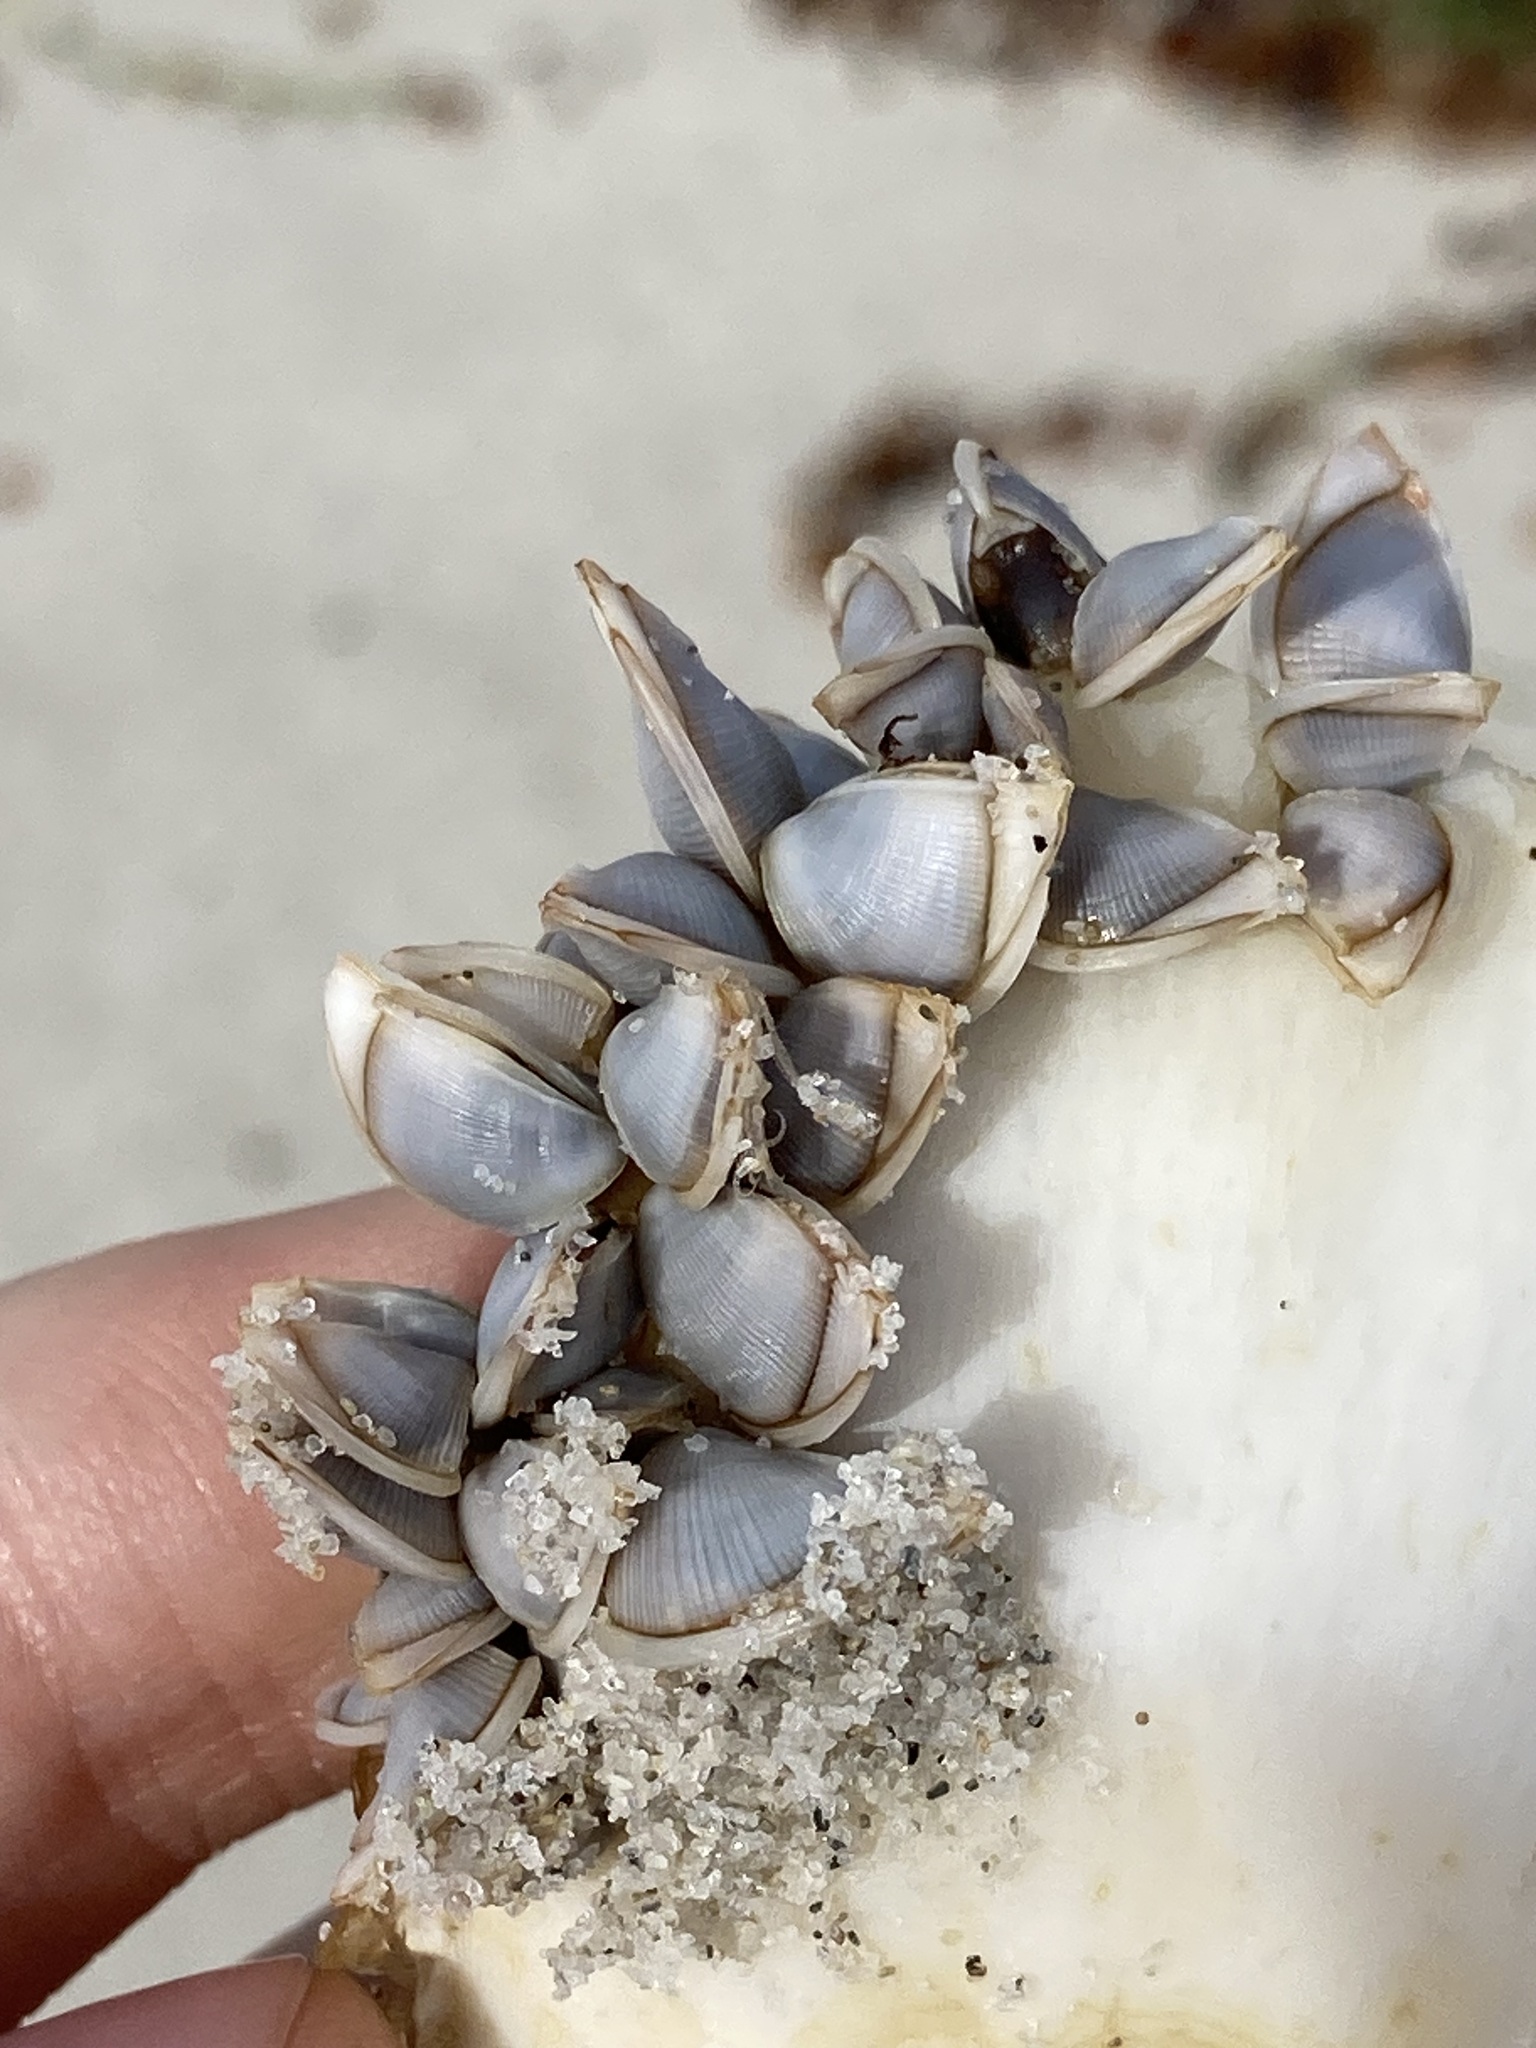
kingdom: Animalia
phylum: Arthropoda
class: Maxillopoda
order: Pedunculata
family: Lepadidae
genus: Lepas
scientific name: Lepas pectinata
